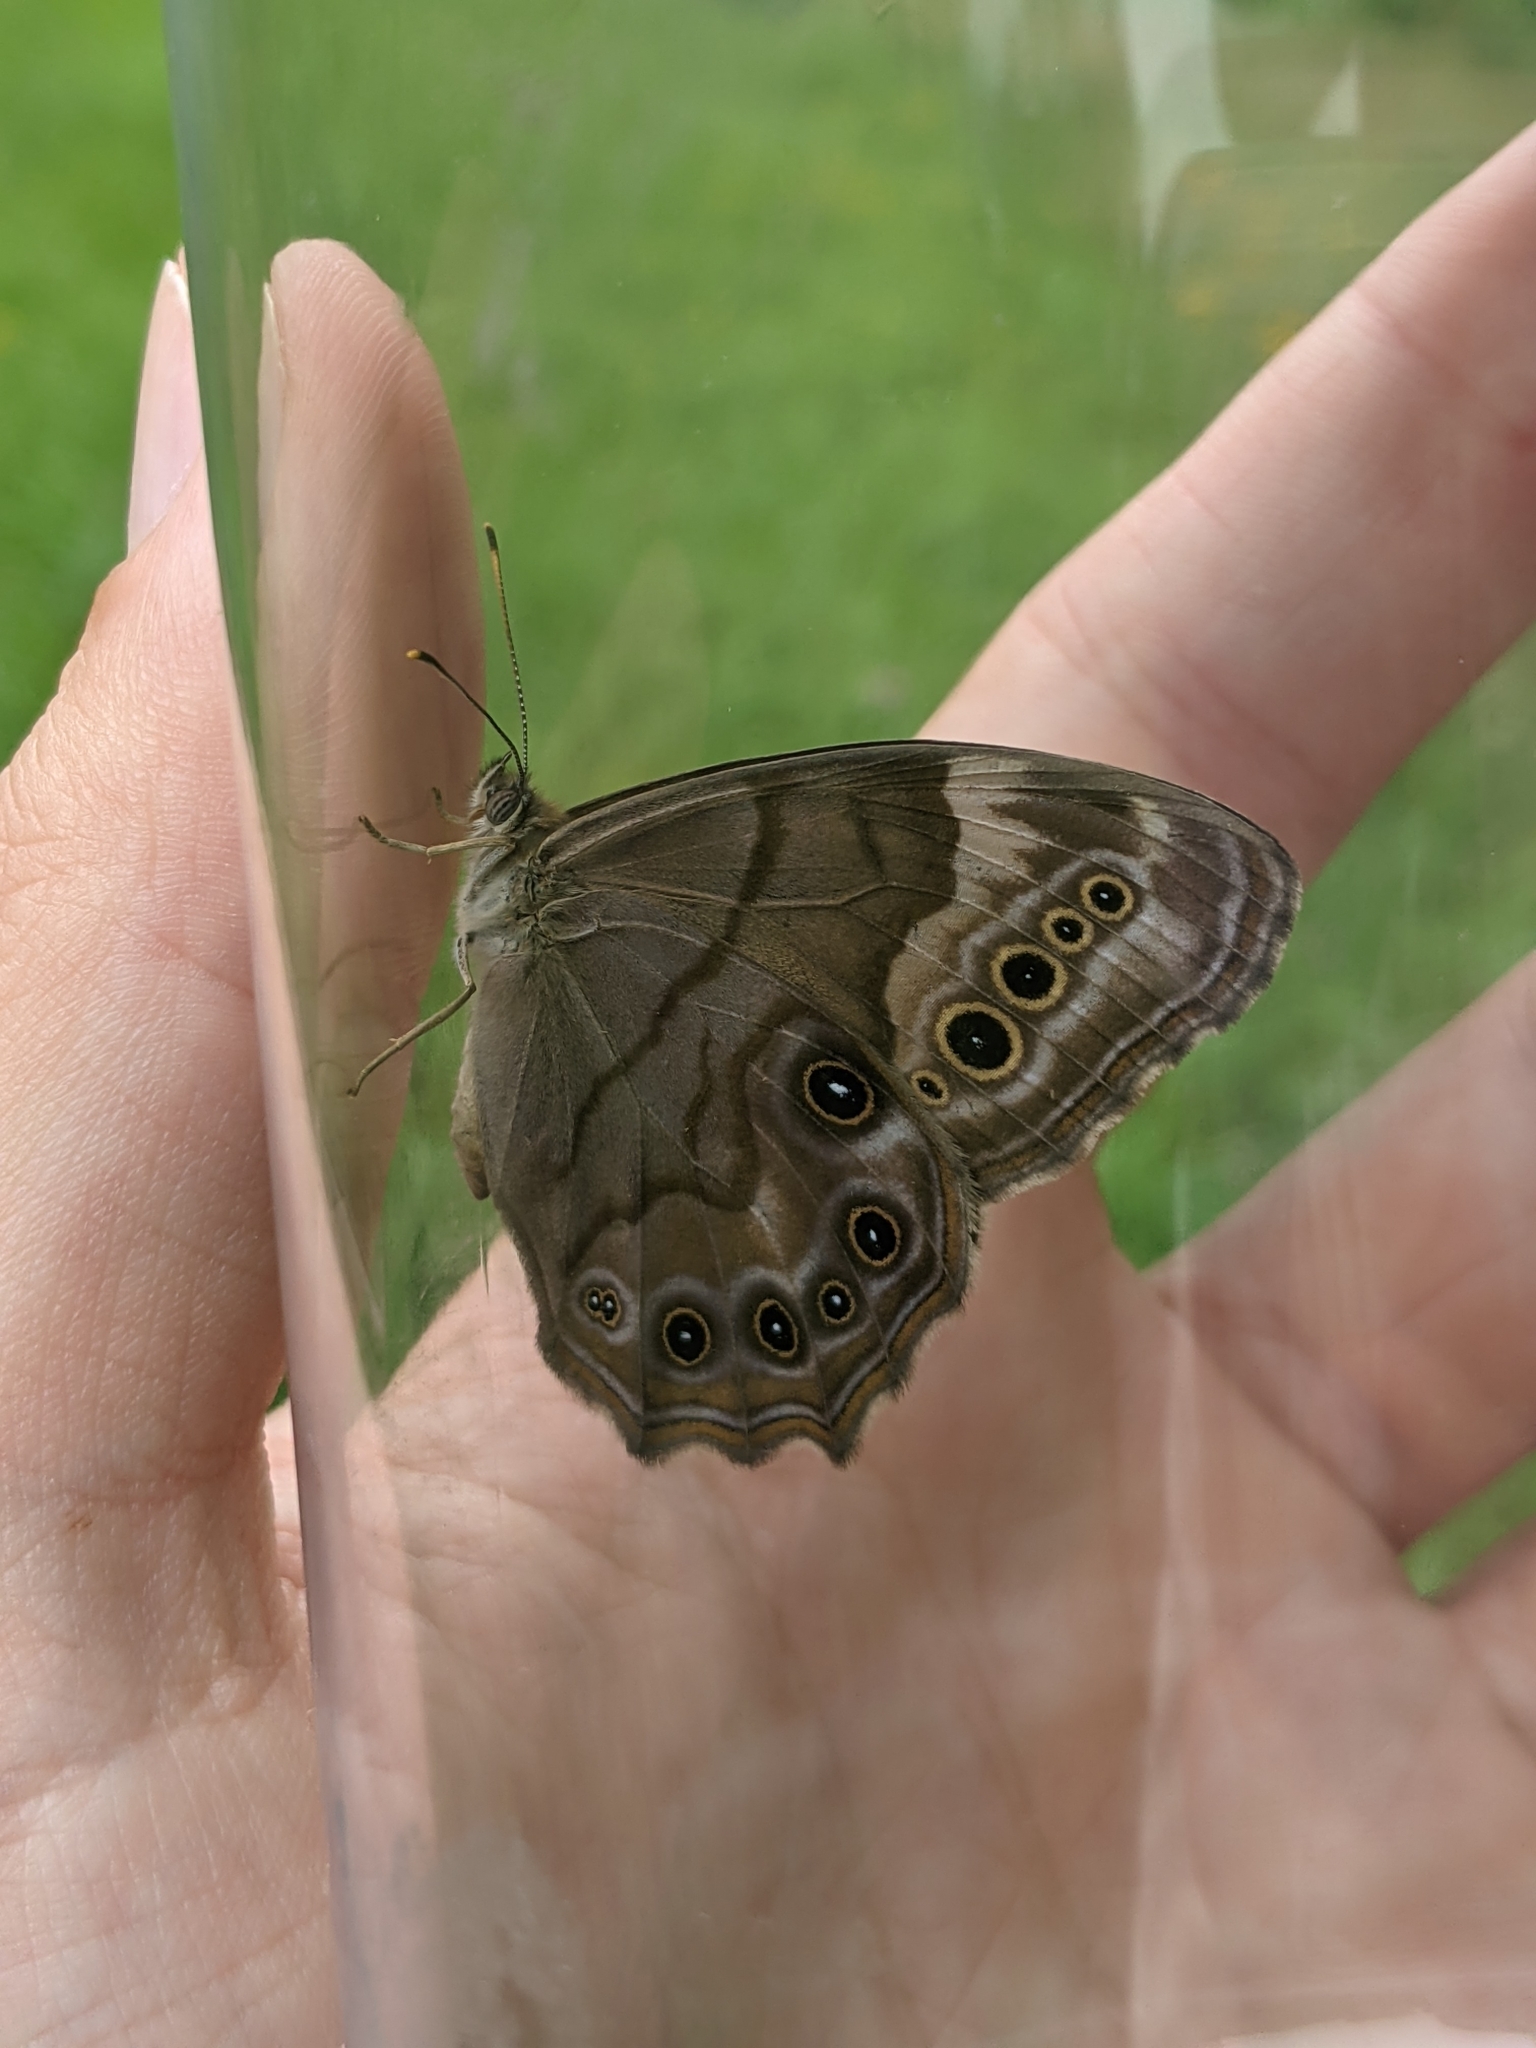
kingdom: Animalia
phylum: Arthropoda
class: Insecta
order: Lepidoptera
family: Nymphalidae
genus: Lethe
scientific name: Lethe anthedon
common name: Northern pearly-eye
